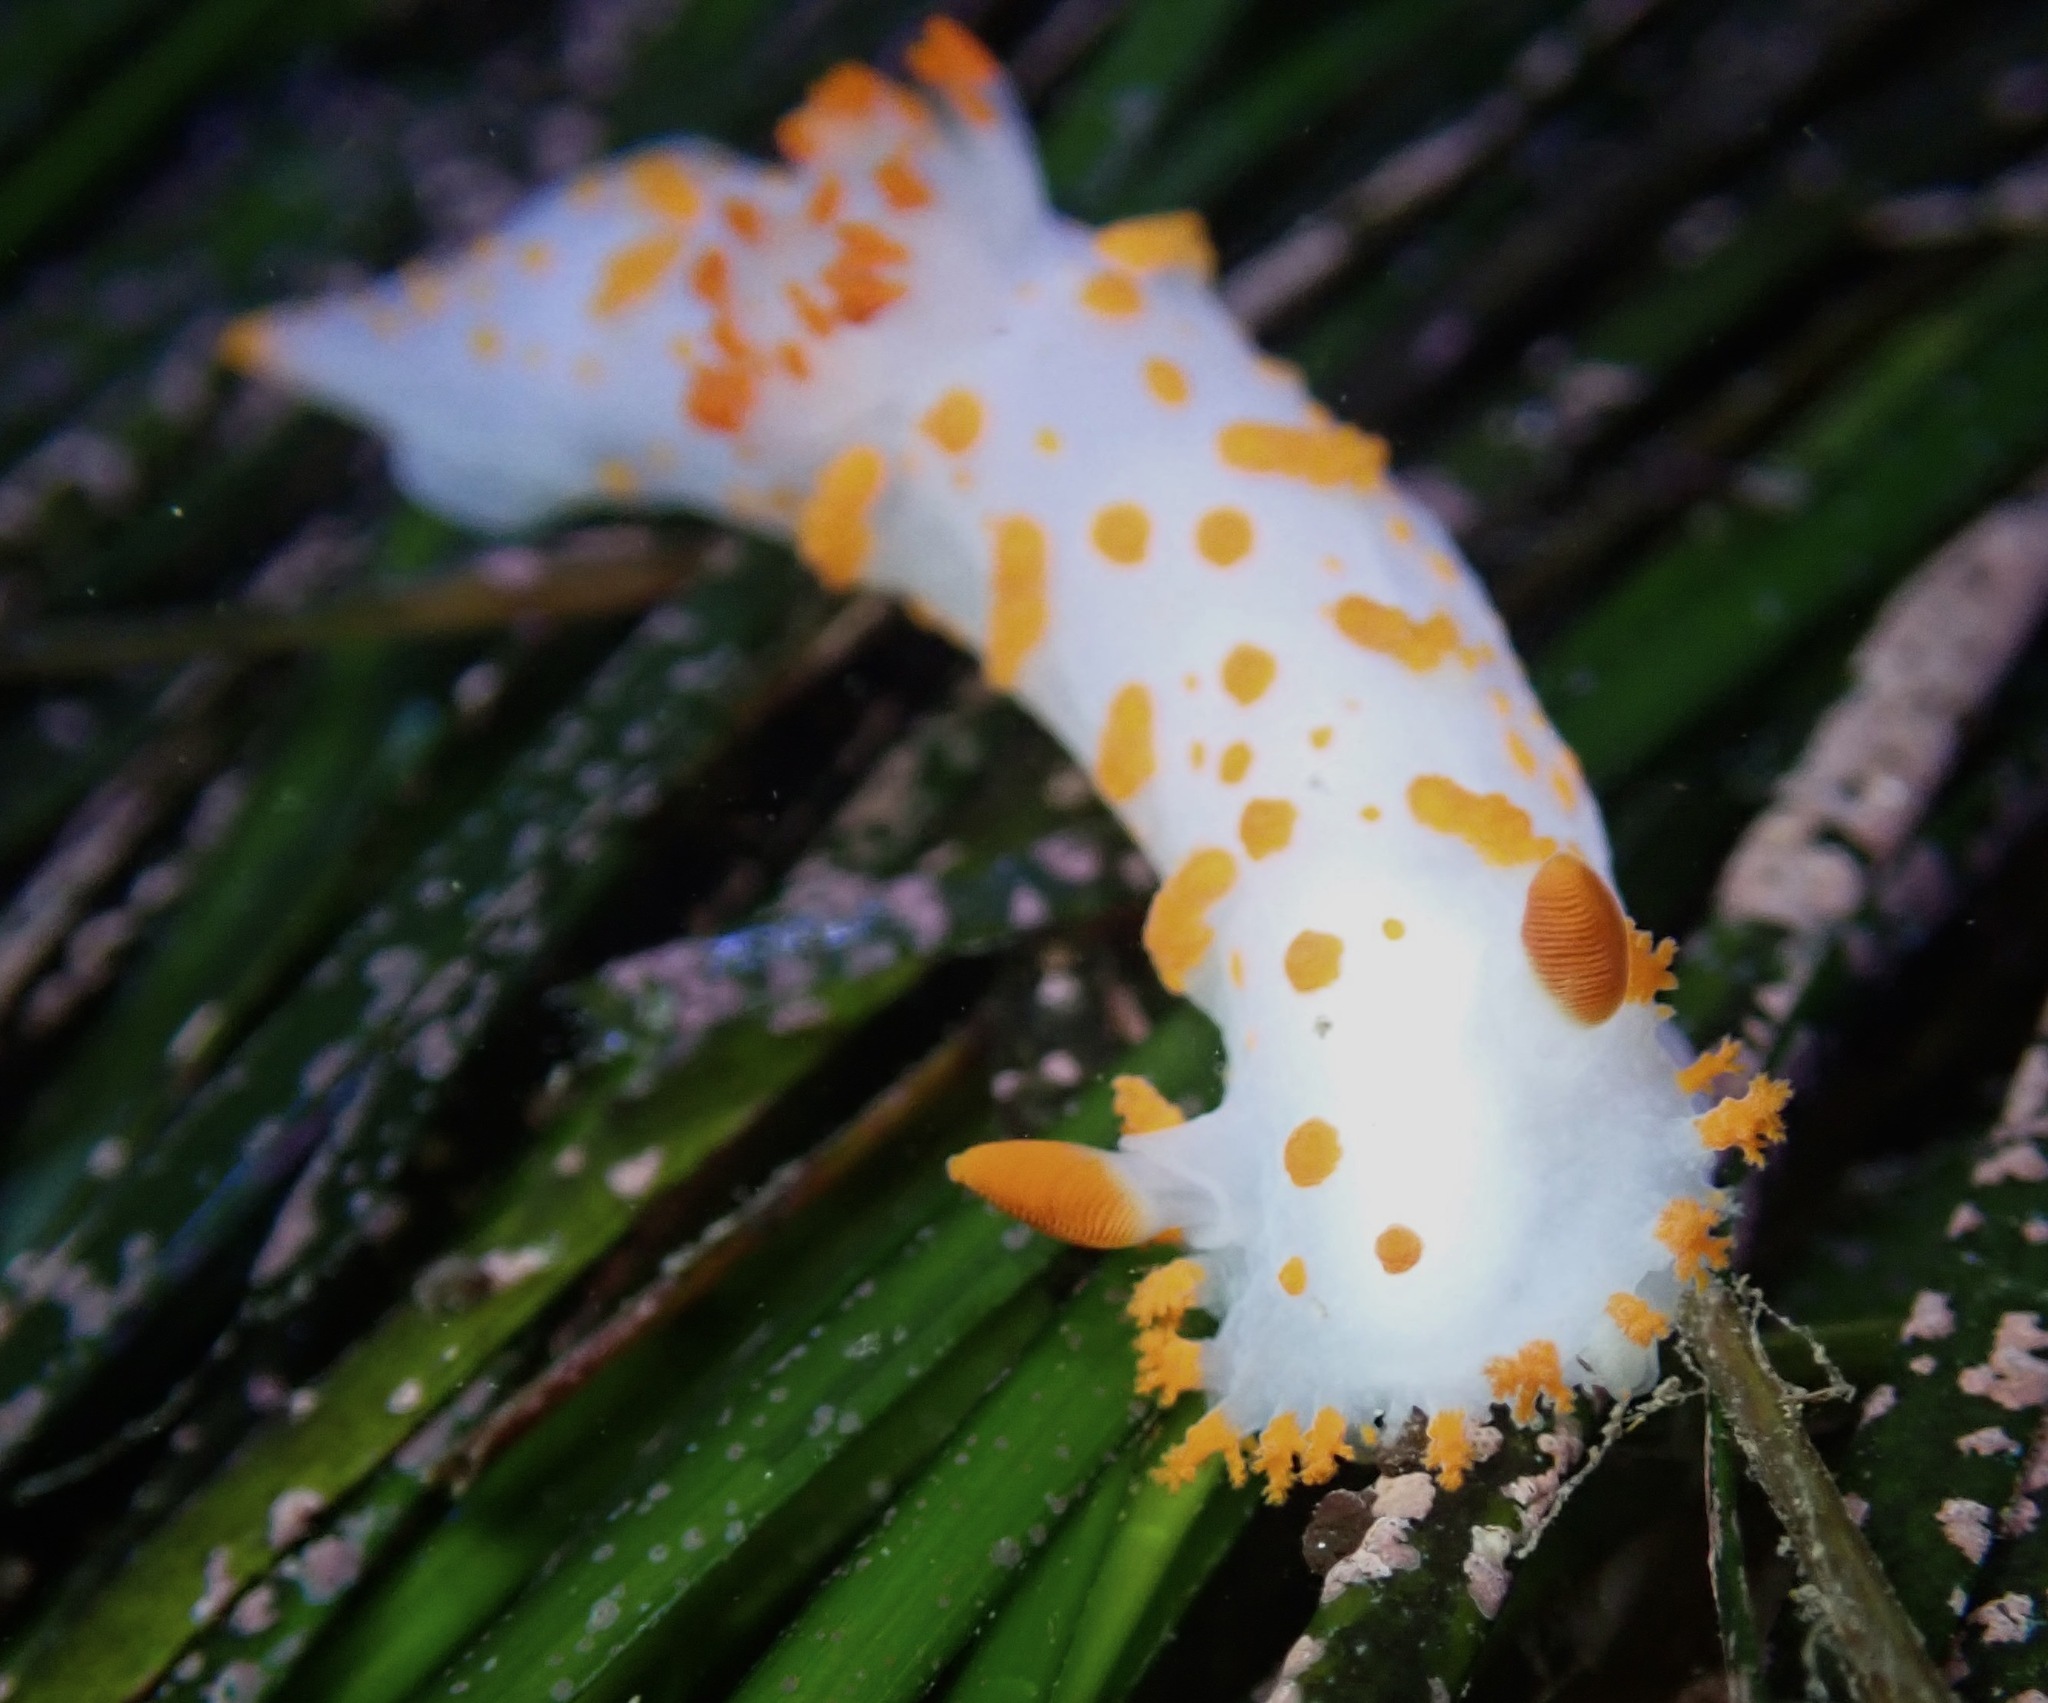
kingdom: Animalia
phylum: Mollusca
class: Gastropoda
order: Nudibranchia
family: Polyceridae
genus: Triopha
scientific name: Triopha catalinae
